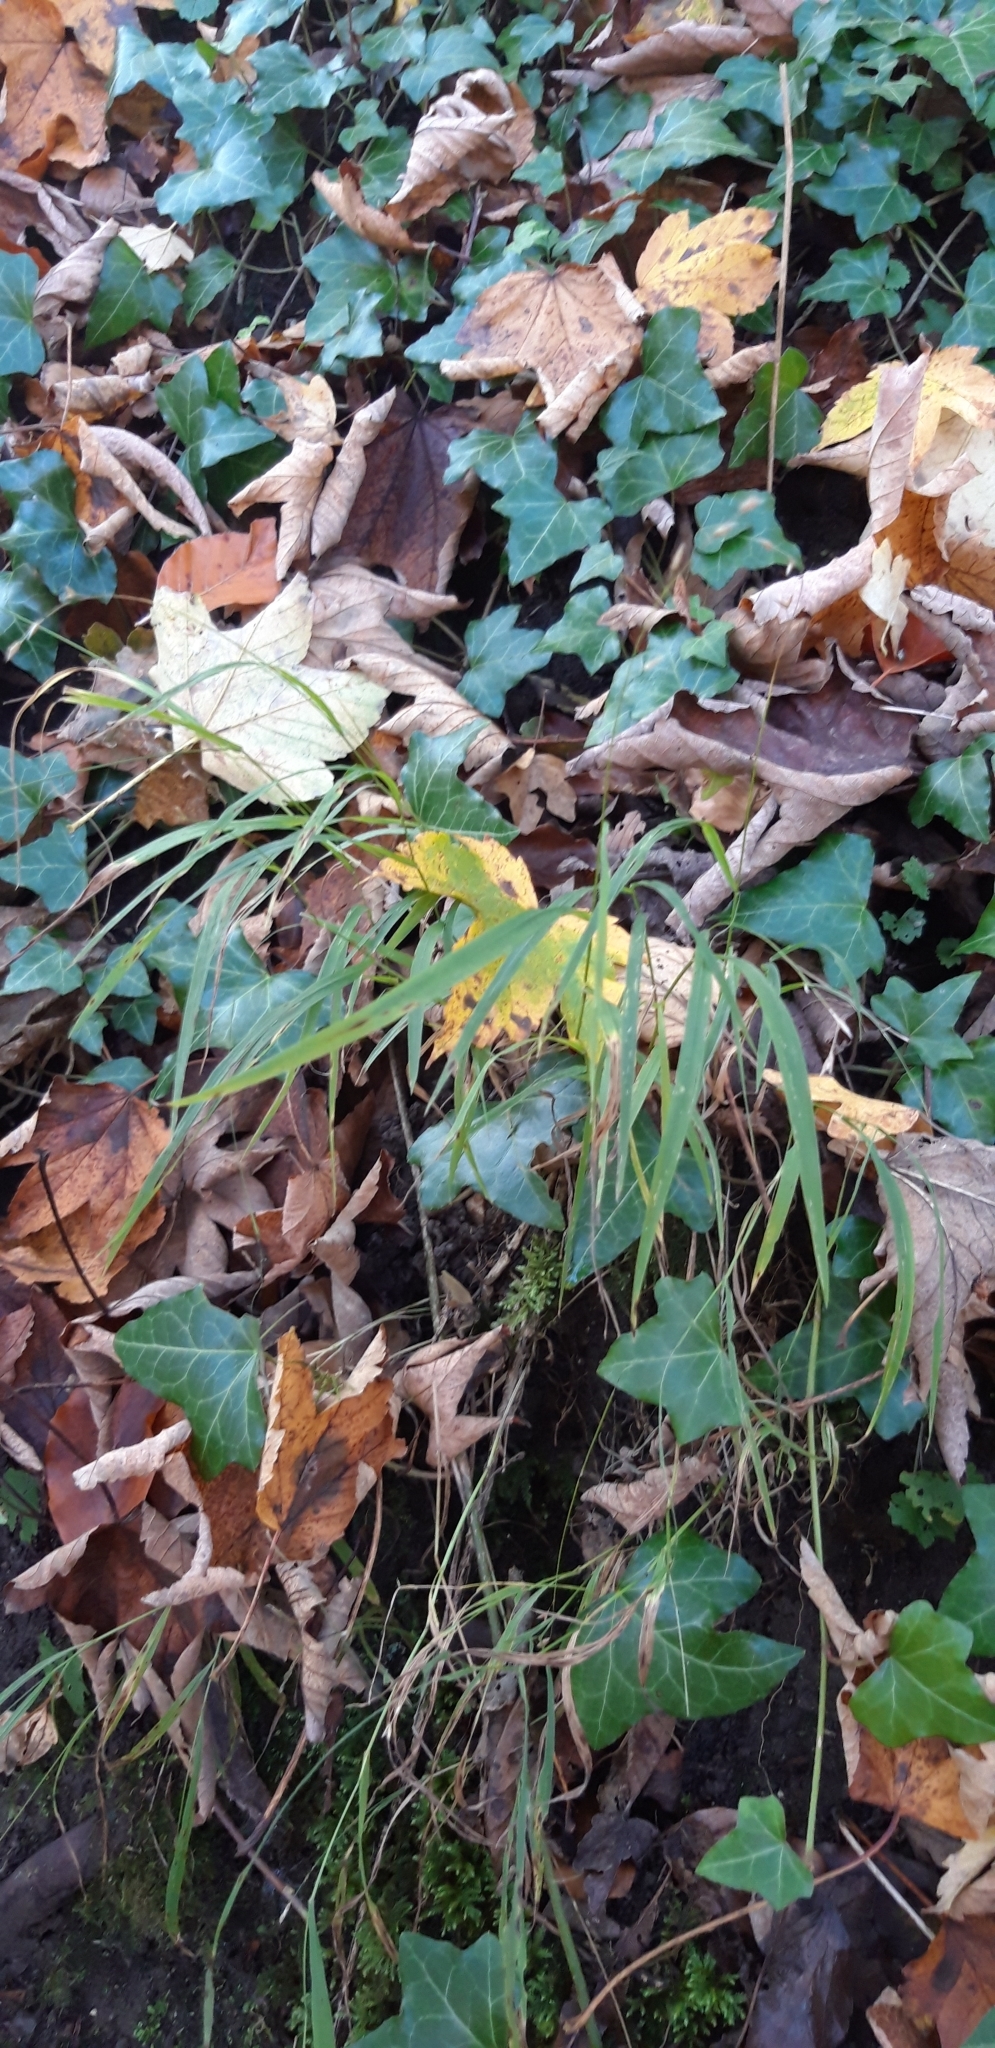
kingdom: Plantae
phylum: Tracheophyta
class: Liliopsida
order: Poales
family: Poaceae
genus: Melica
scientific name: Melica uniflora
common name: Wood melick
